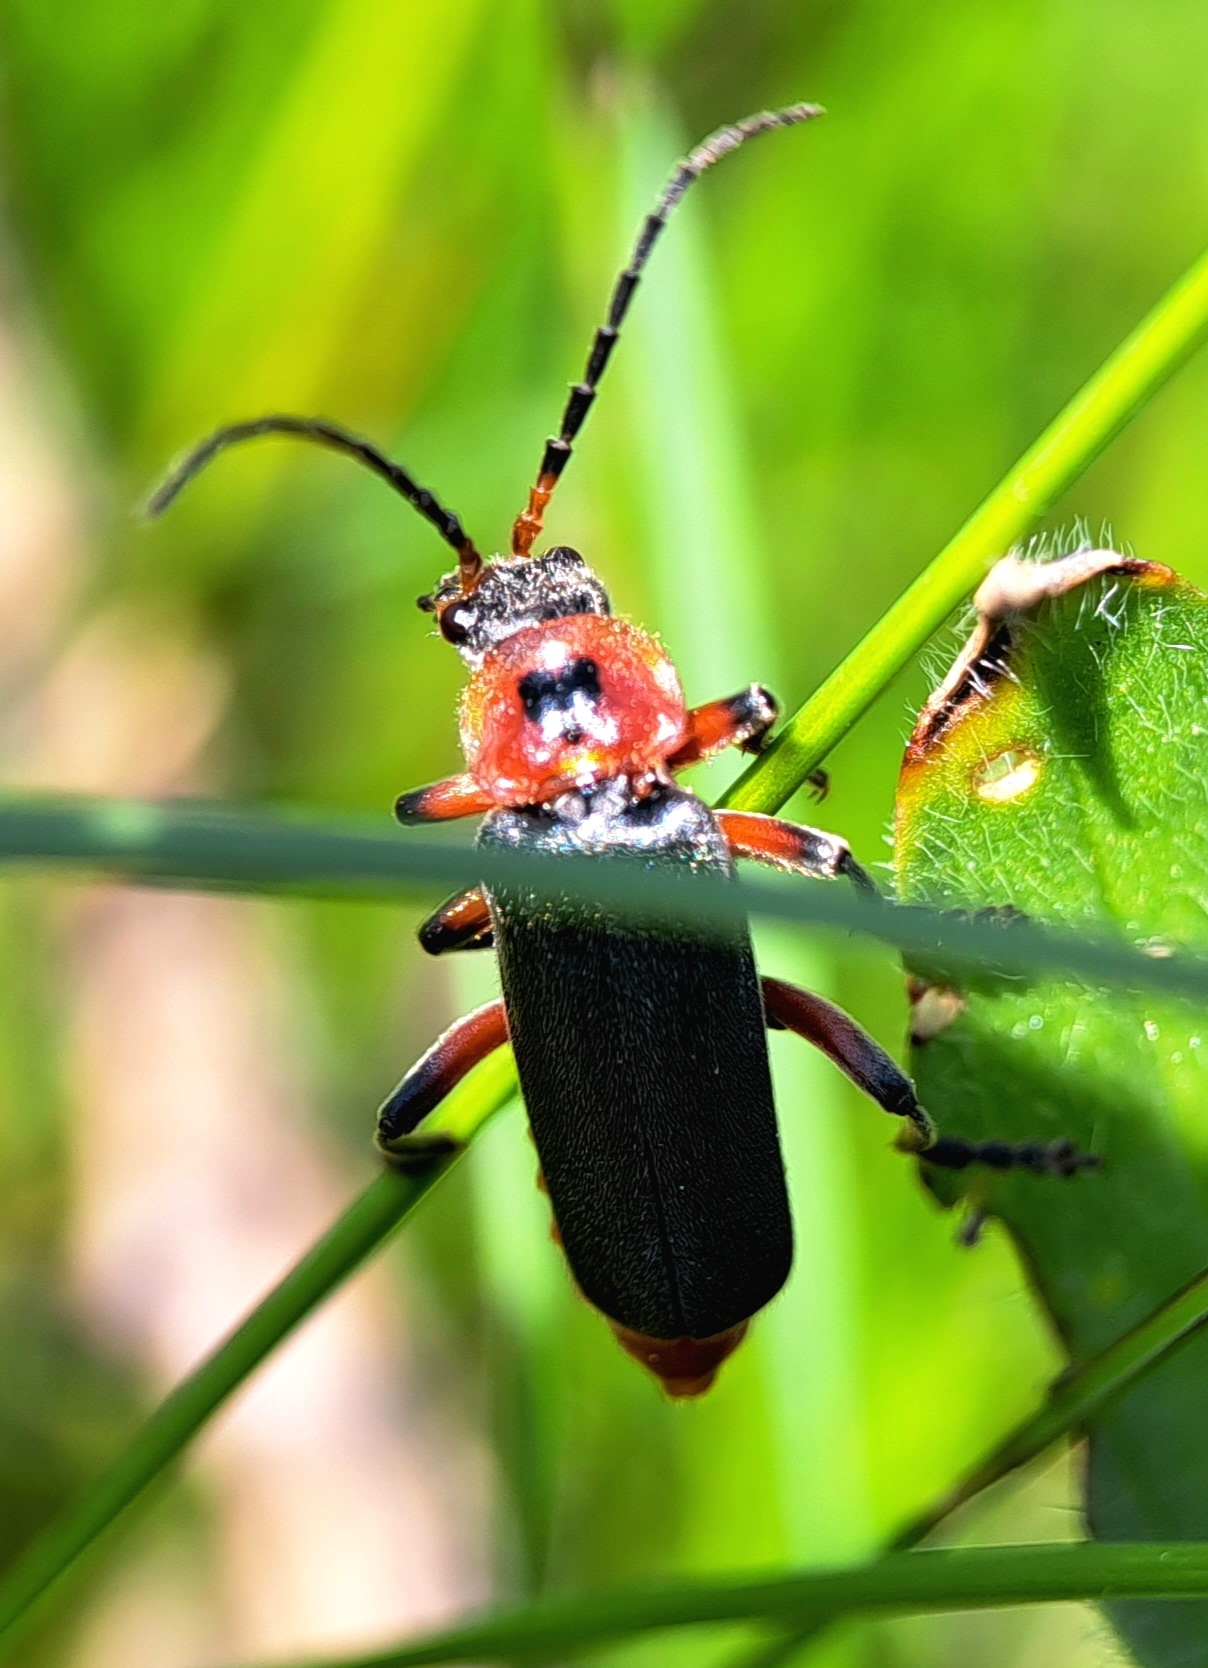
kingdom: Animalia
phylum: Arthropoda
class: Insecta
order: Coleoptera
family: Cantharidae
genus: Cantharis
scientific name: Cantharis rustica
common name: Soldier beetle
